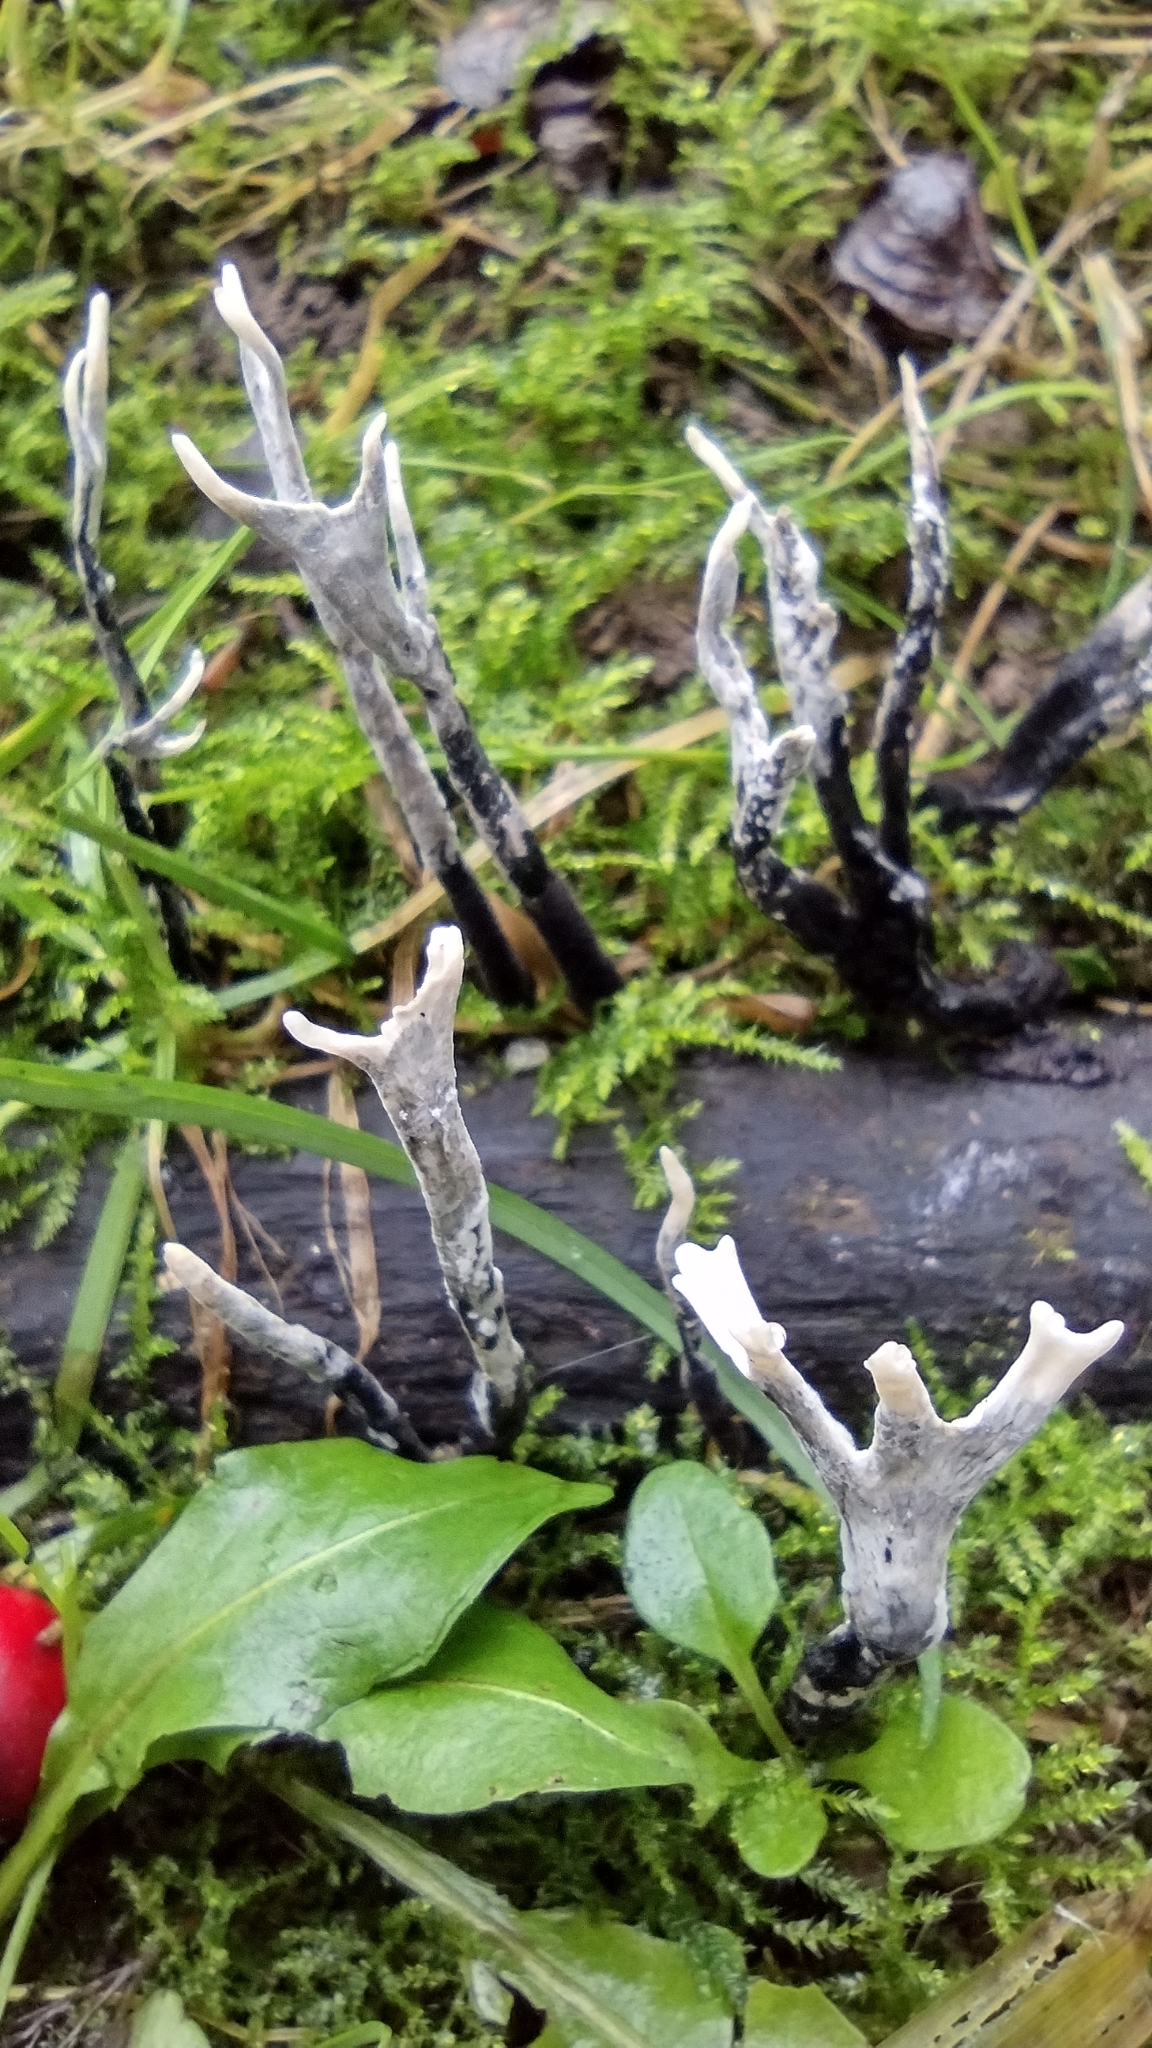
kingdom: Fungi
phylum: Ascomycota
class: Sordariomycetes
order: Xylariales
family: Xylariaceae
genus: Xylaria
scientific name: Xylaria hypoxylon
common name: Candle-snuff fungus
